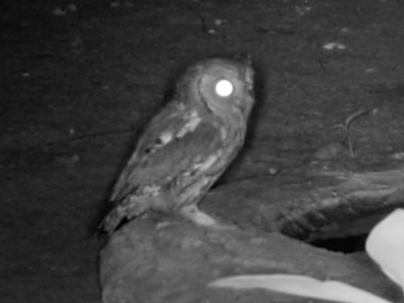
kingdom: Animalia
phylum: Chordata
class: Aves
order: Strigiformes
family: Strigidae
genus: Otus
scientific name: Otus senegalensis
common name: African scops owl
